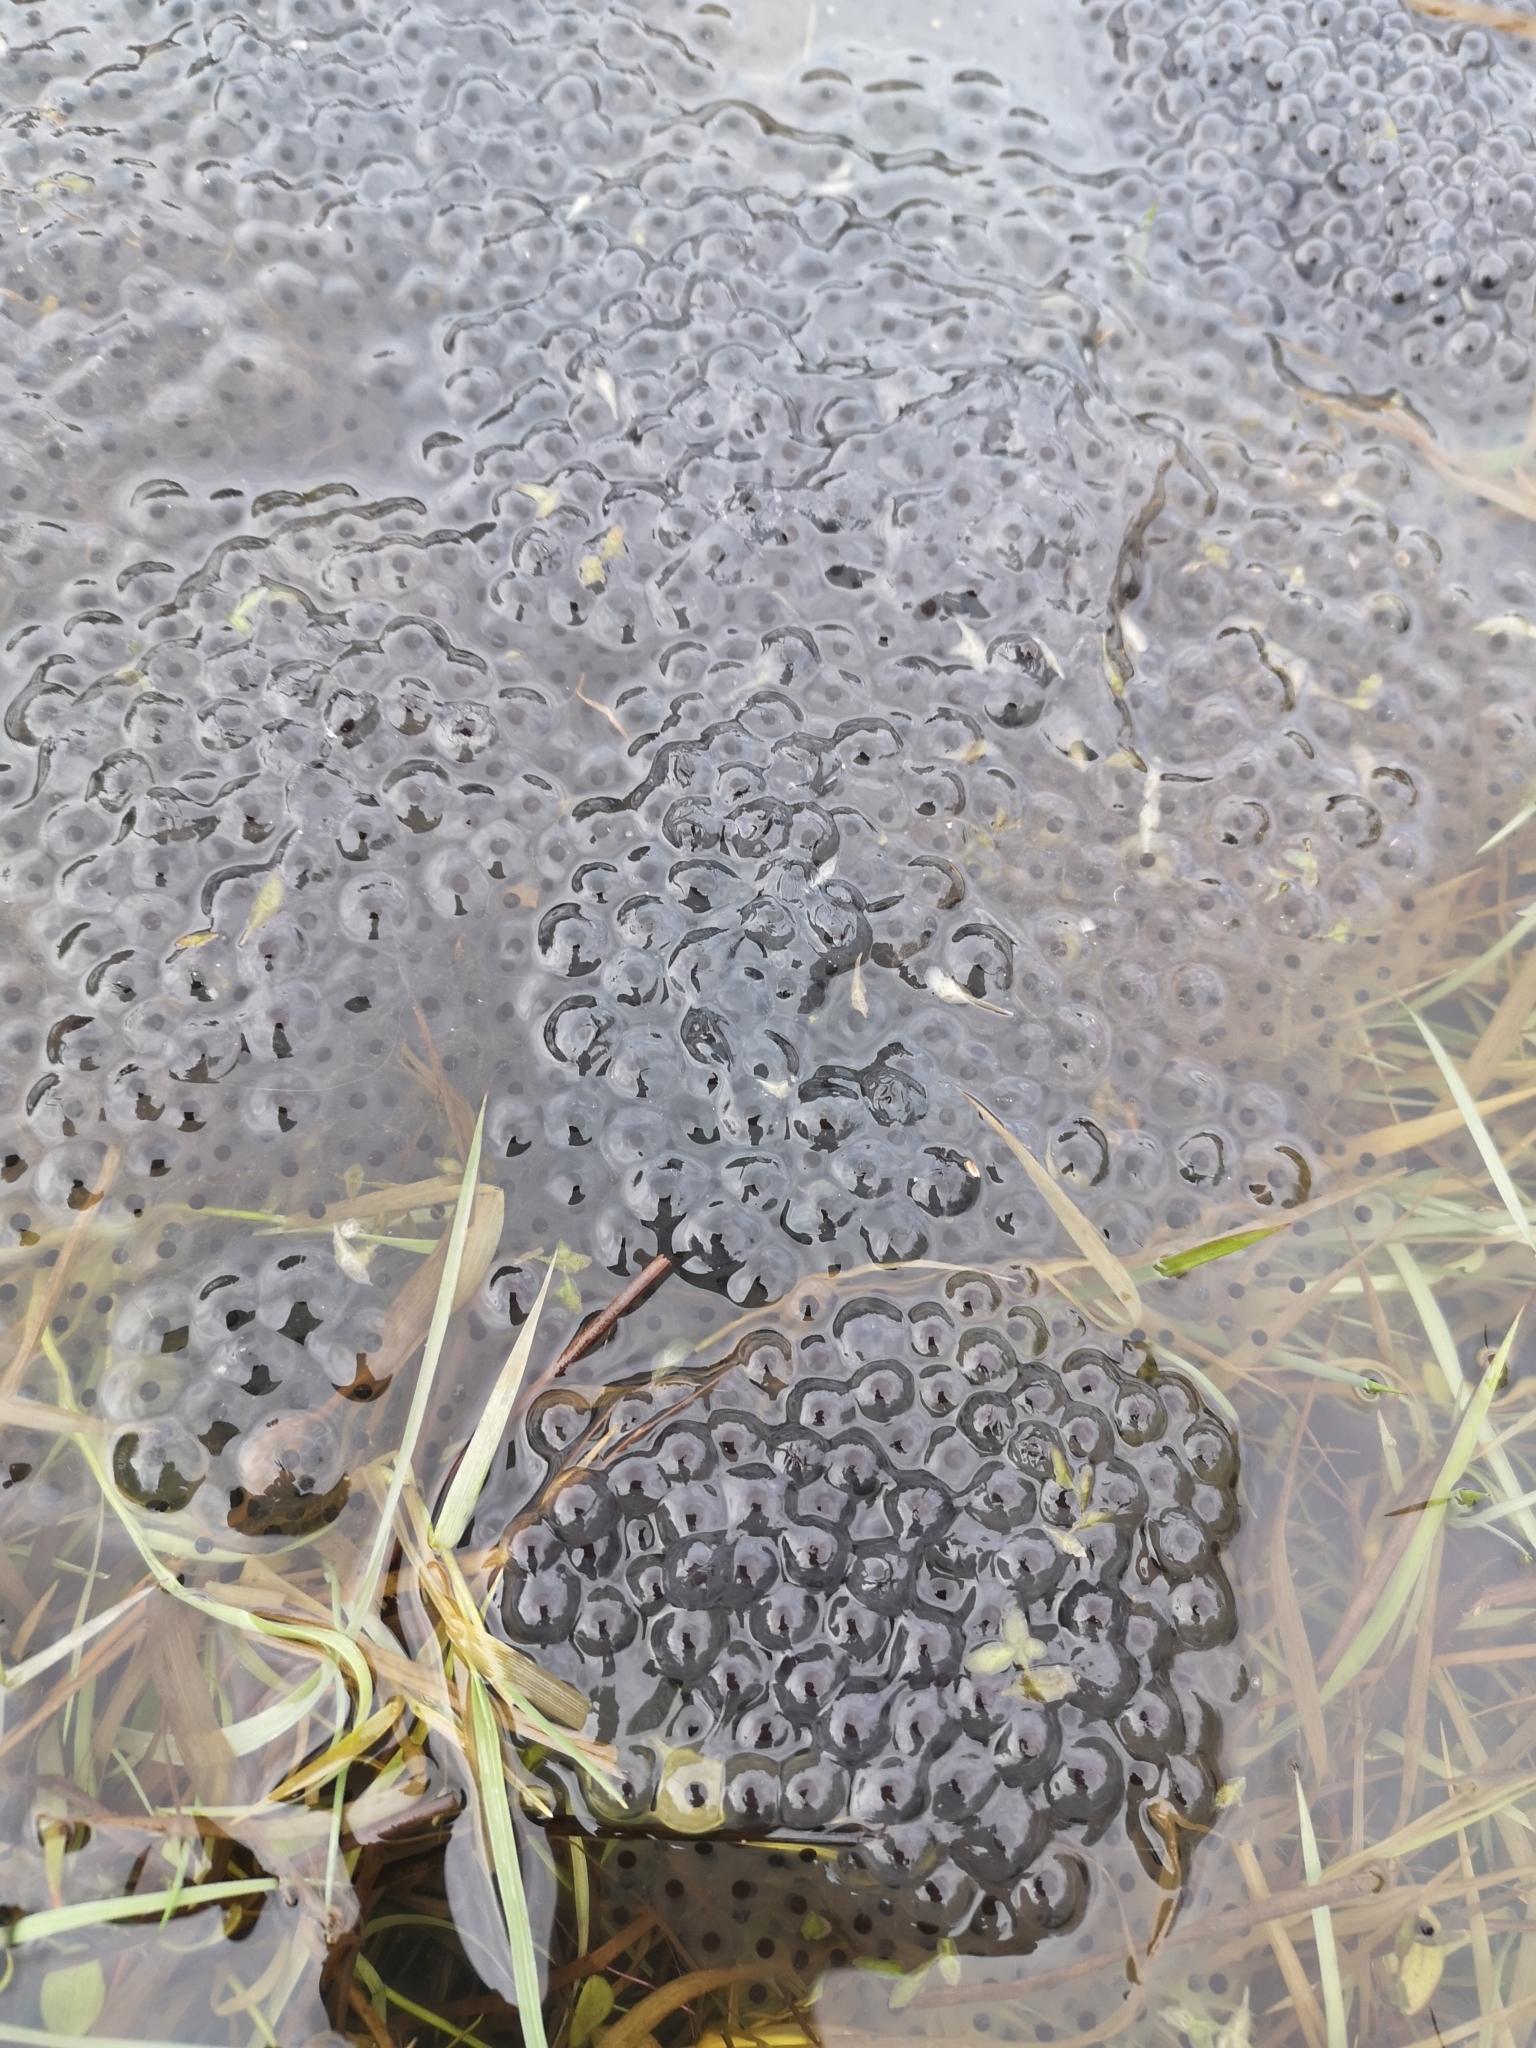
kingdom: Animalia
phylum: Chordata
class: Amphibia
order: Anura
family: Ranidae
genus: Rana
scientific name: Rana temporaria
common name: Common frog
